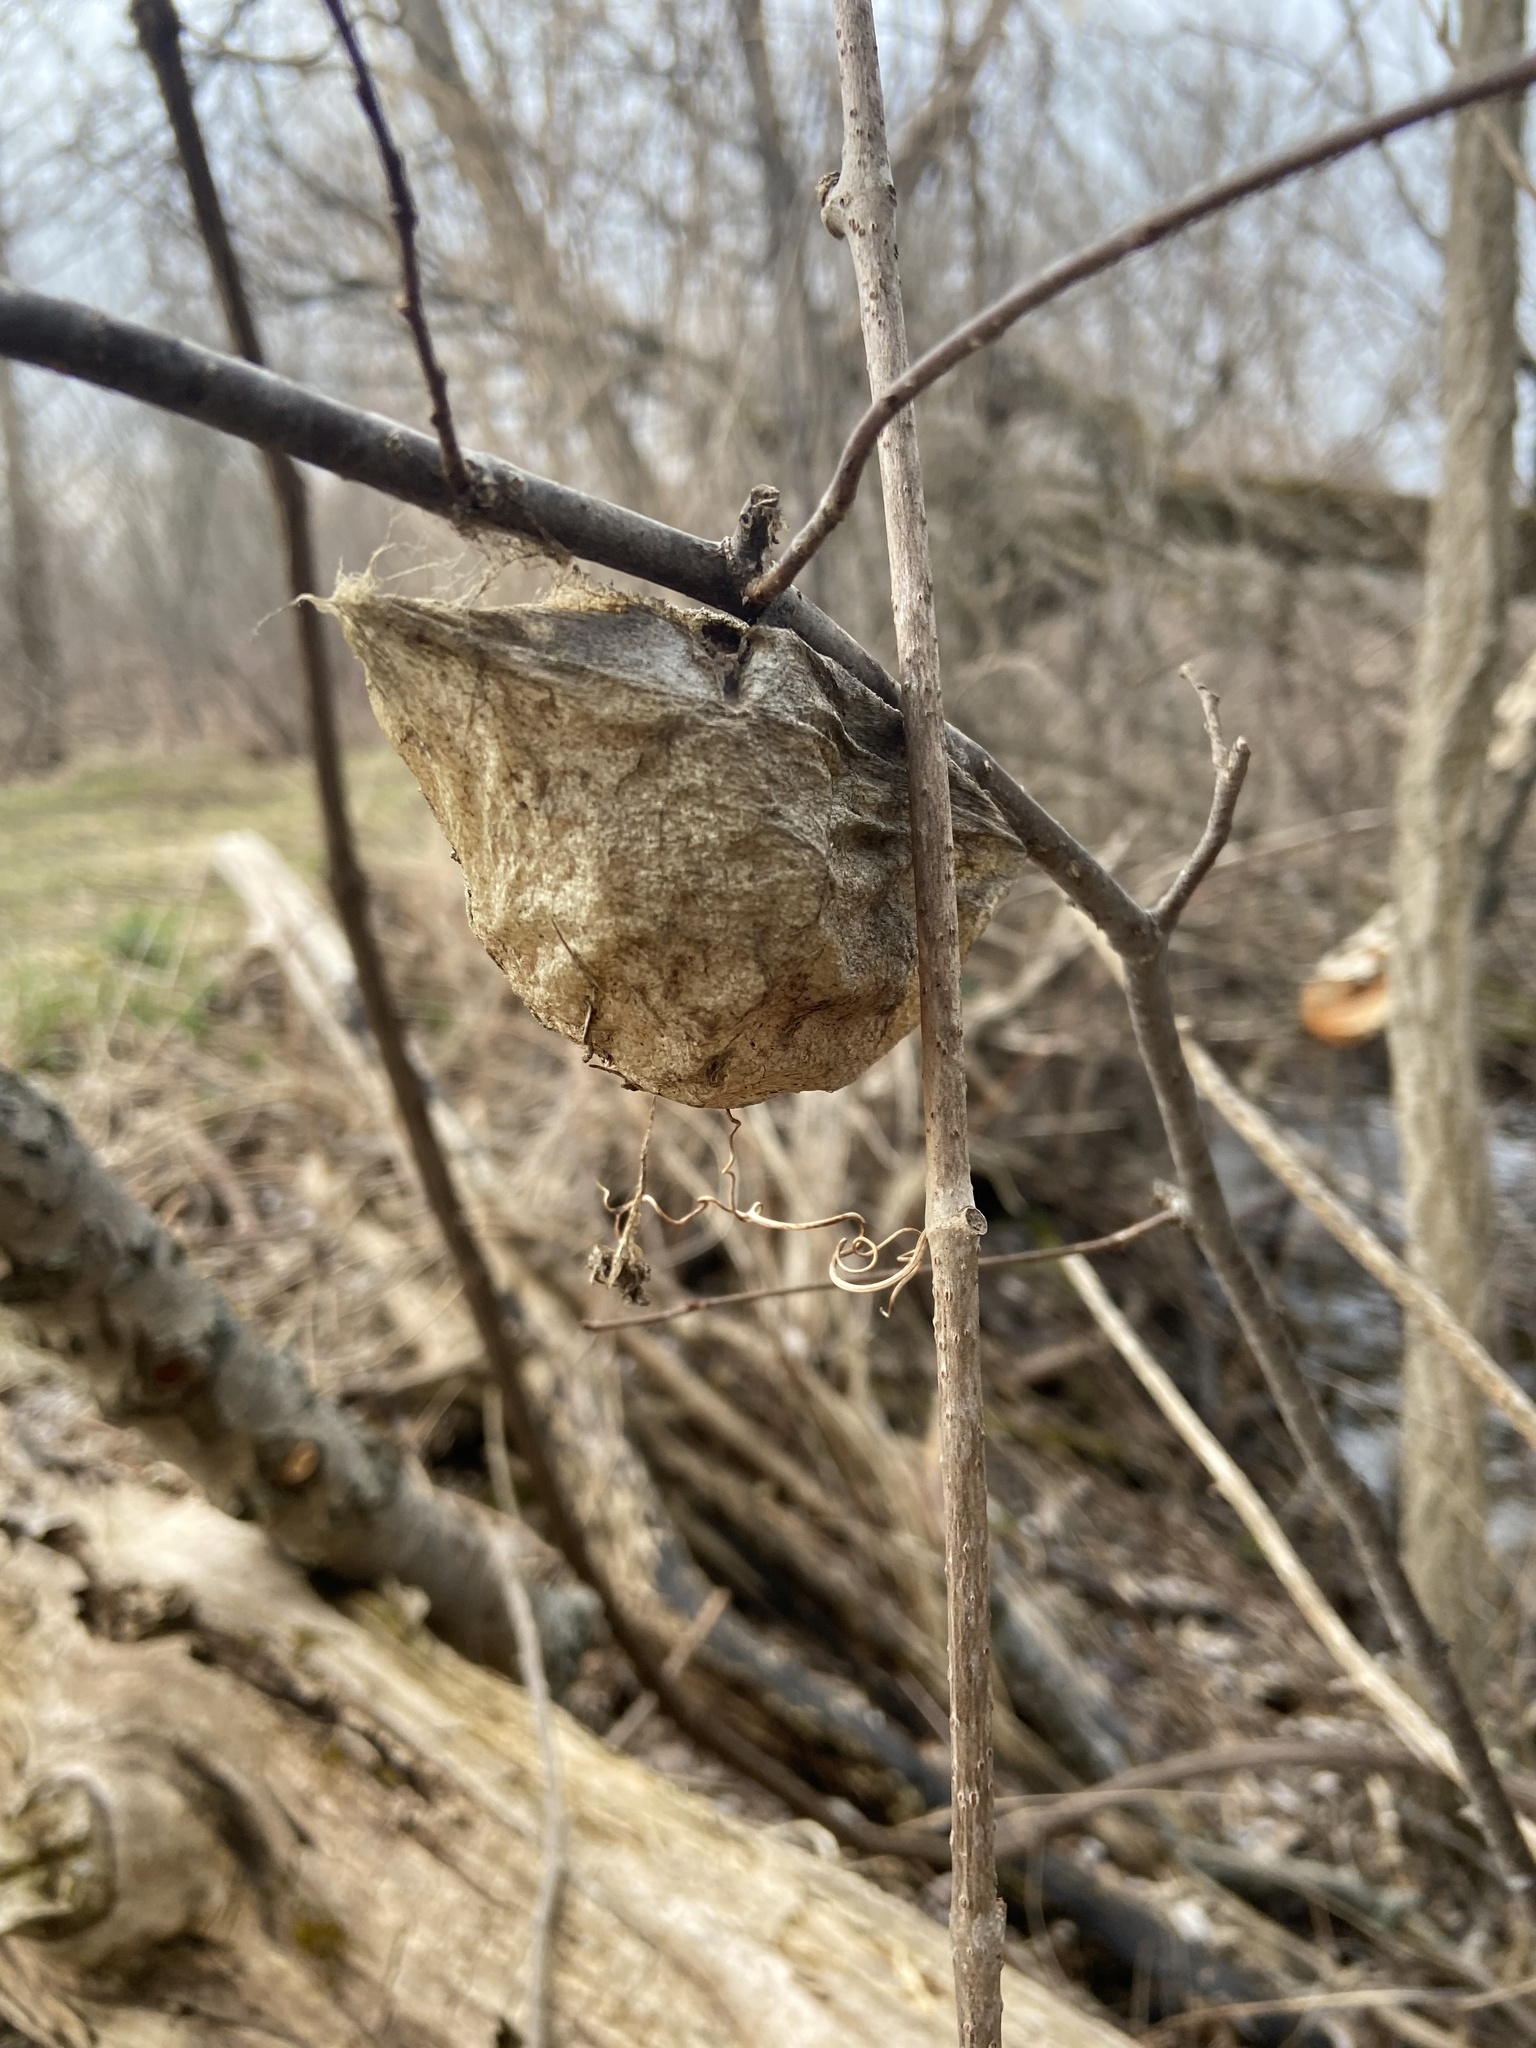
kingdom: Animalia
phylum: Arthropoda
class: Insecta
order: Lepidoptera
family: Saturniidae
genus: Hyalophora
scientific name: Hyalophora cecropia
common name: Cecropia silkmoth
